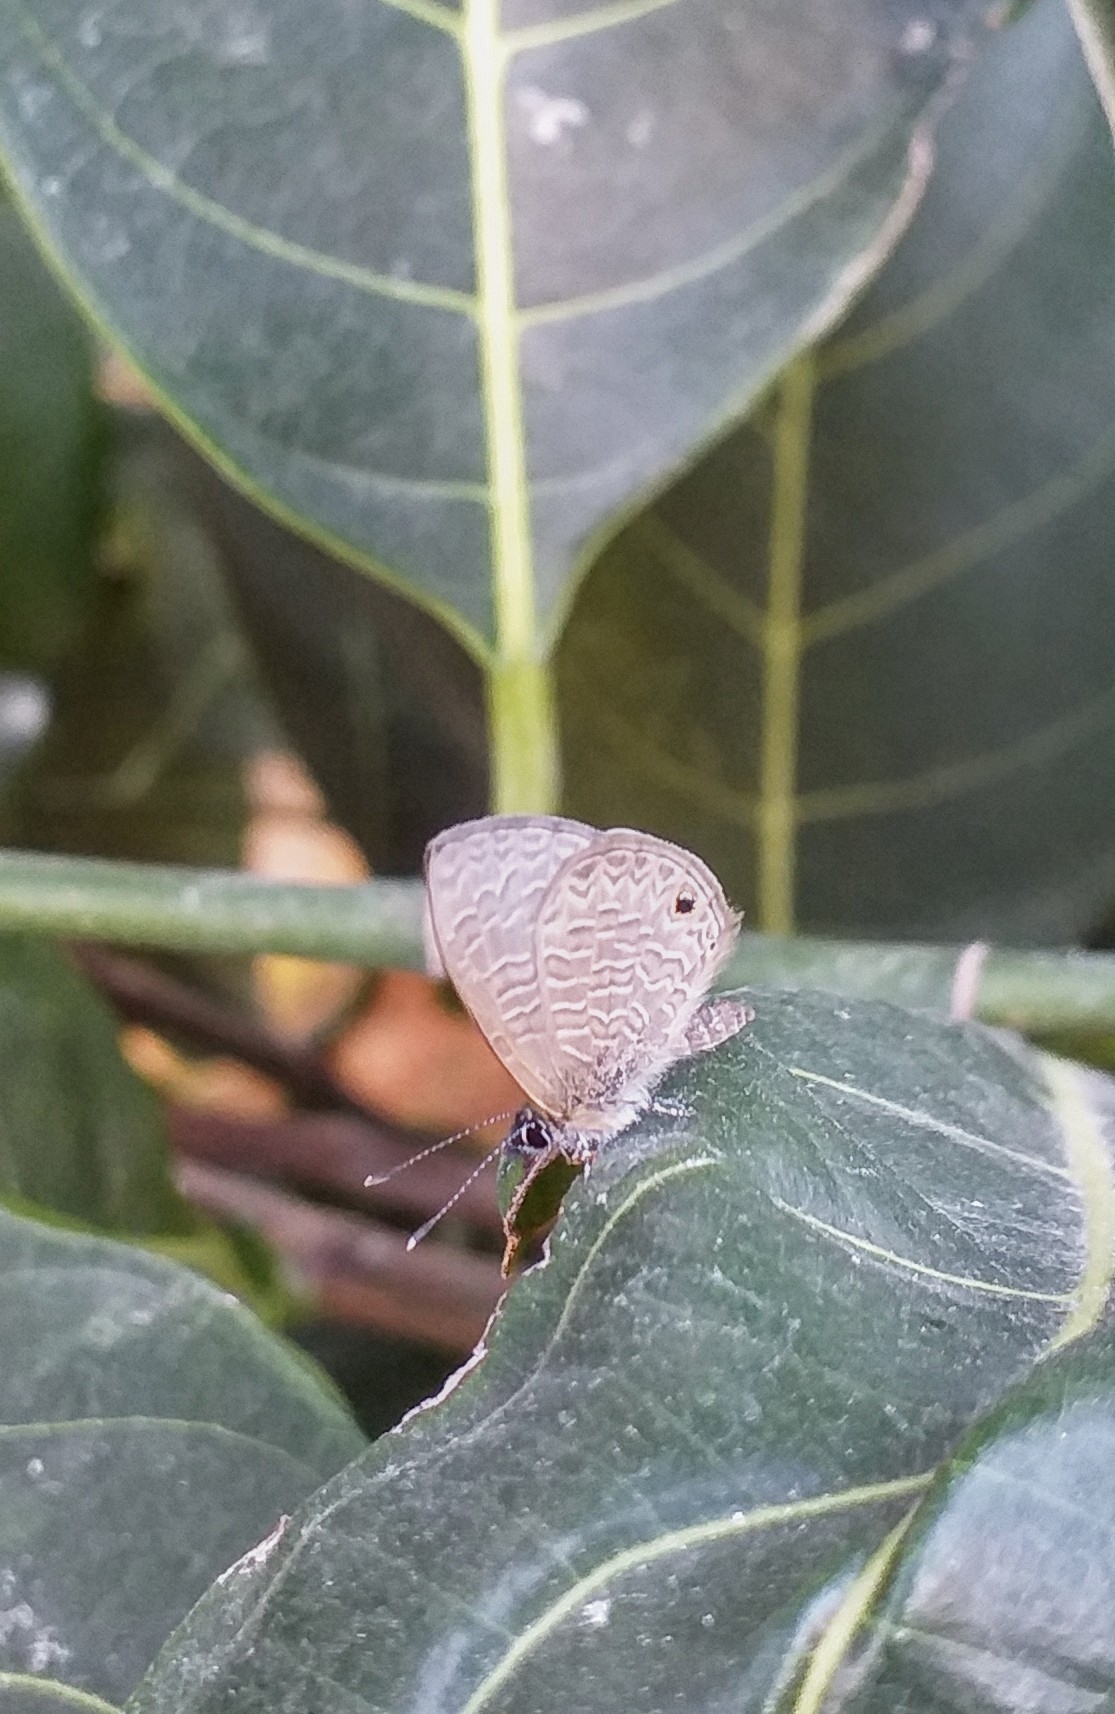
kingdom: Animalia
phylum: Arthropoda
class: Insecta
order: Lepidoptera
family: Lycaenidae
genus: Prosotas
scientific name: Prosotas dubiosa
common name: Tailless lineblue
